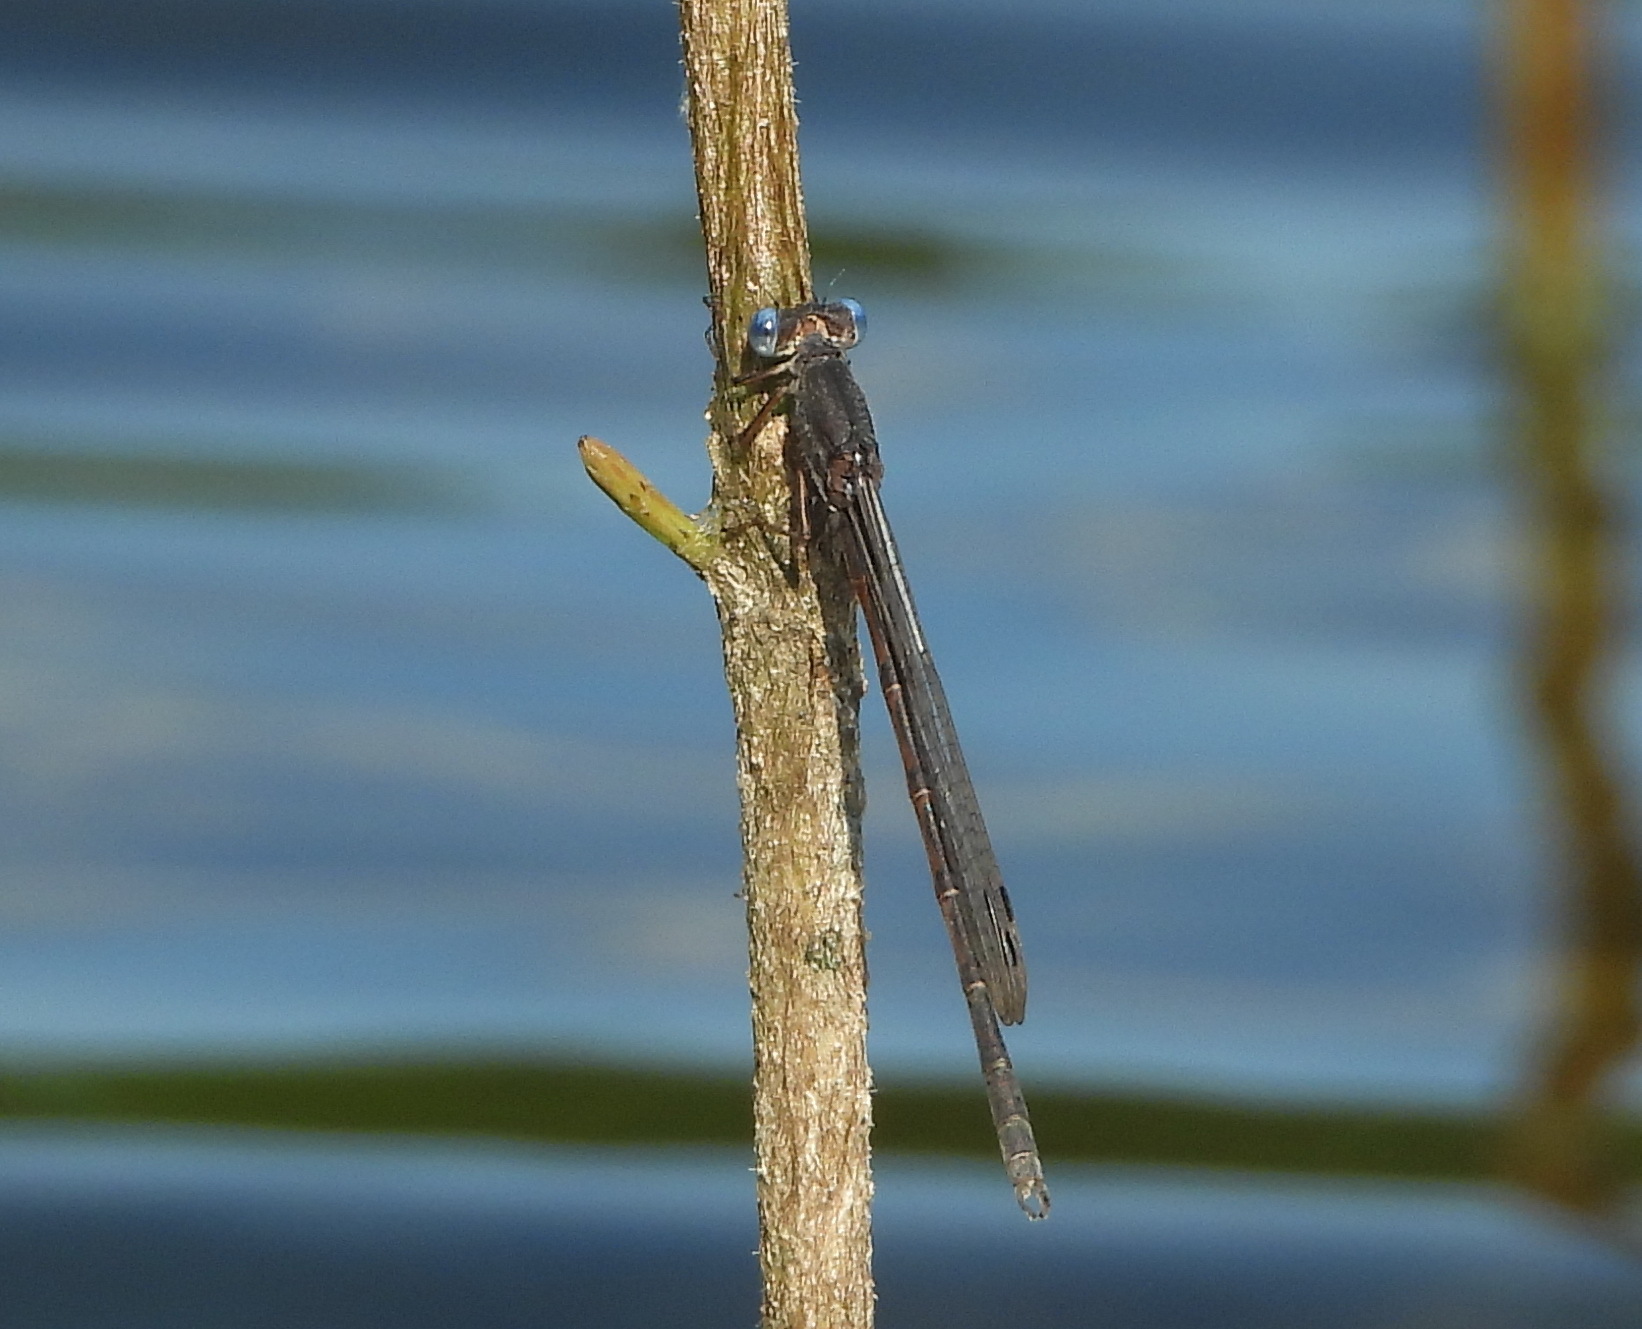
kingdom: Animalia
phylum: Arthropoda
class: Insecta
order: Odonata
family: Lestidae
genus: Sympecma
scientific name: Sympecma paedisca
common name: Siberian winter damsel
